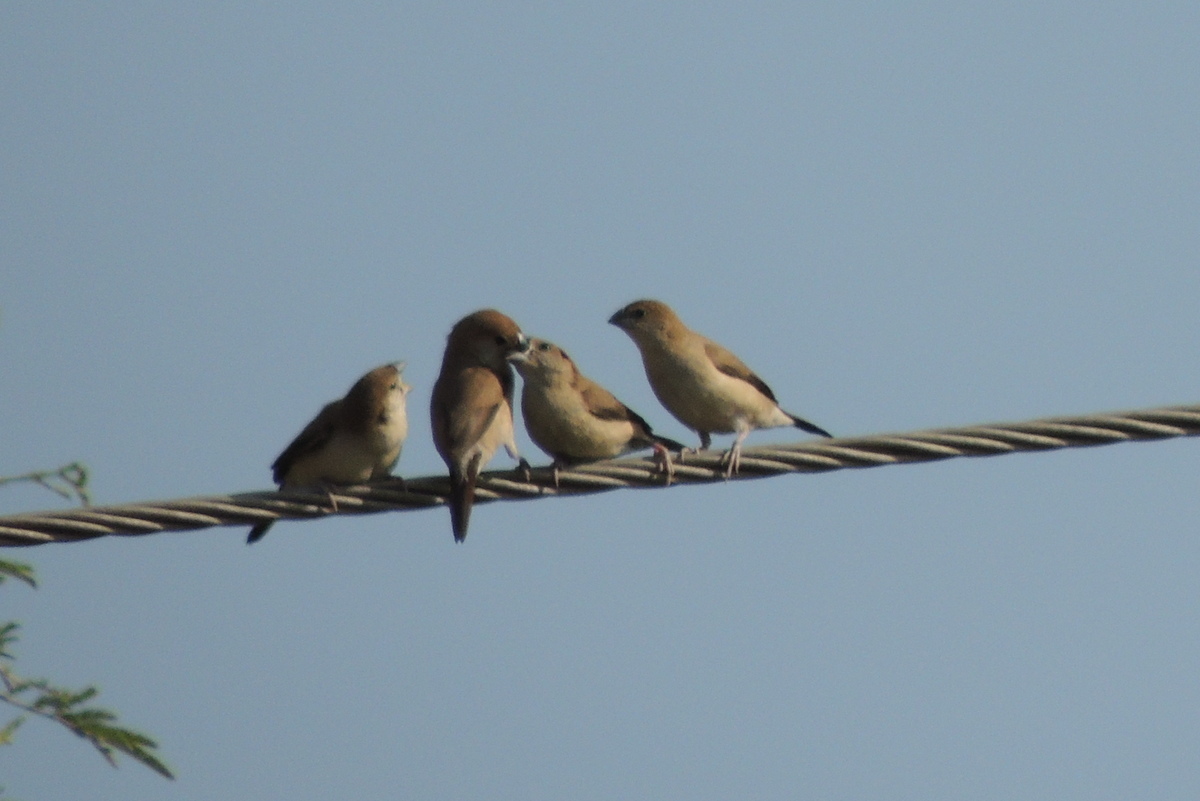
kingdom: Animalia
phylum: Chordata
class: Aves
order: Passeriformes
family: Estrildidae
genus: Euodice
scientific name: Euodice malabarica
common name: Indian silverbill
